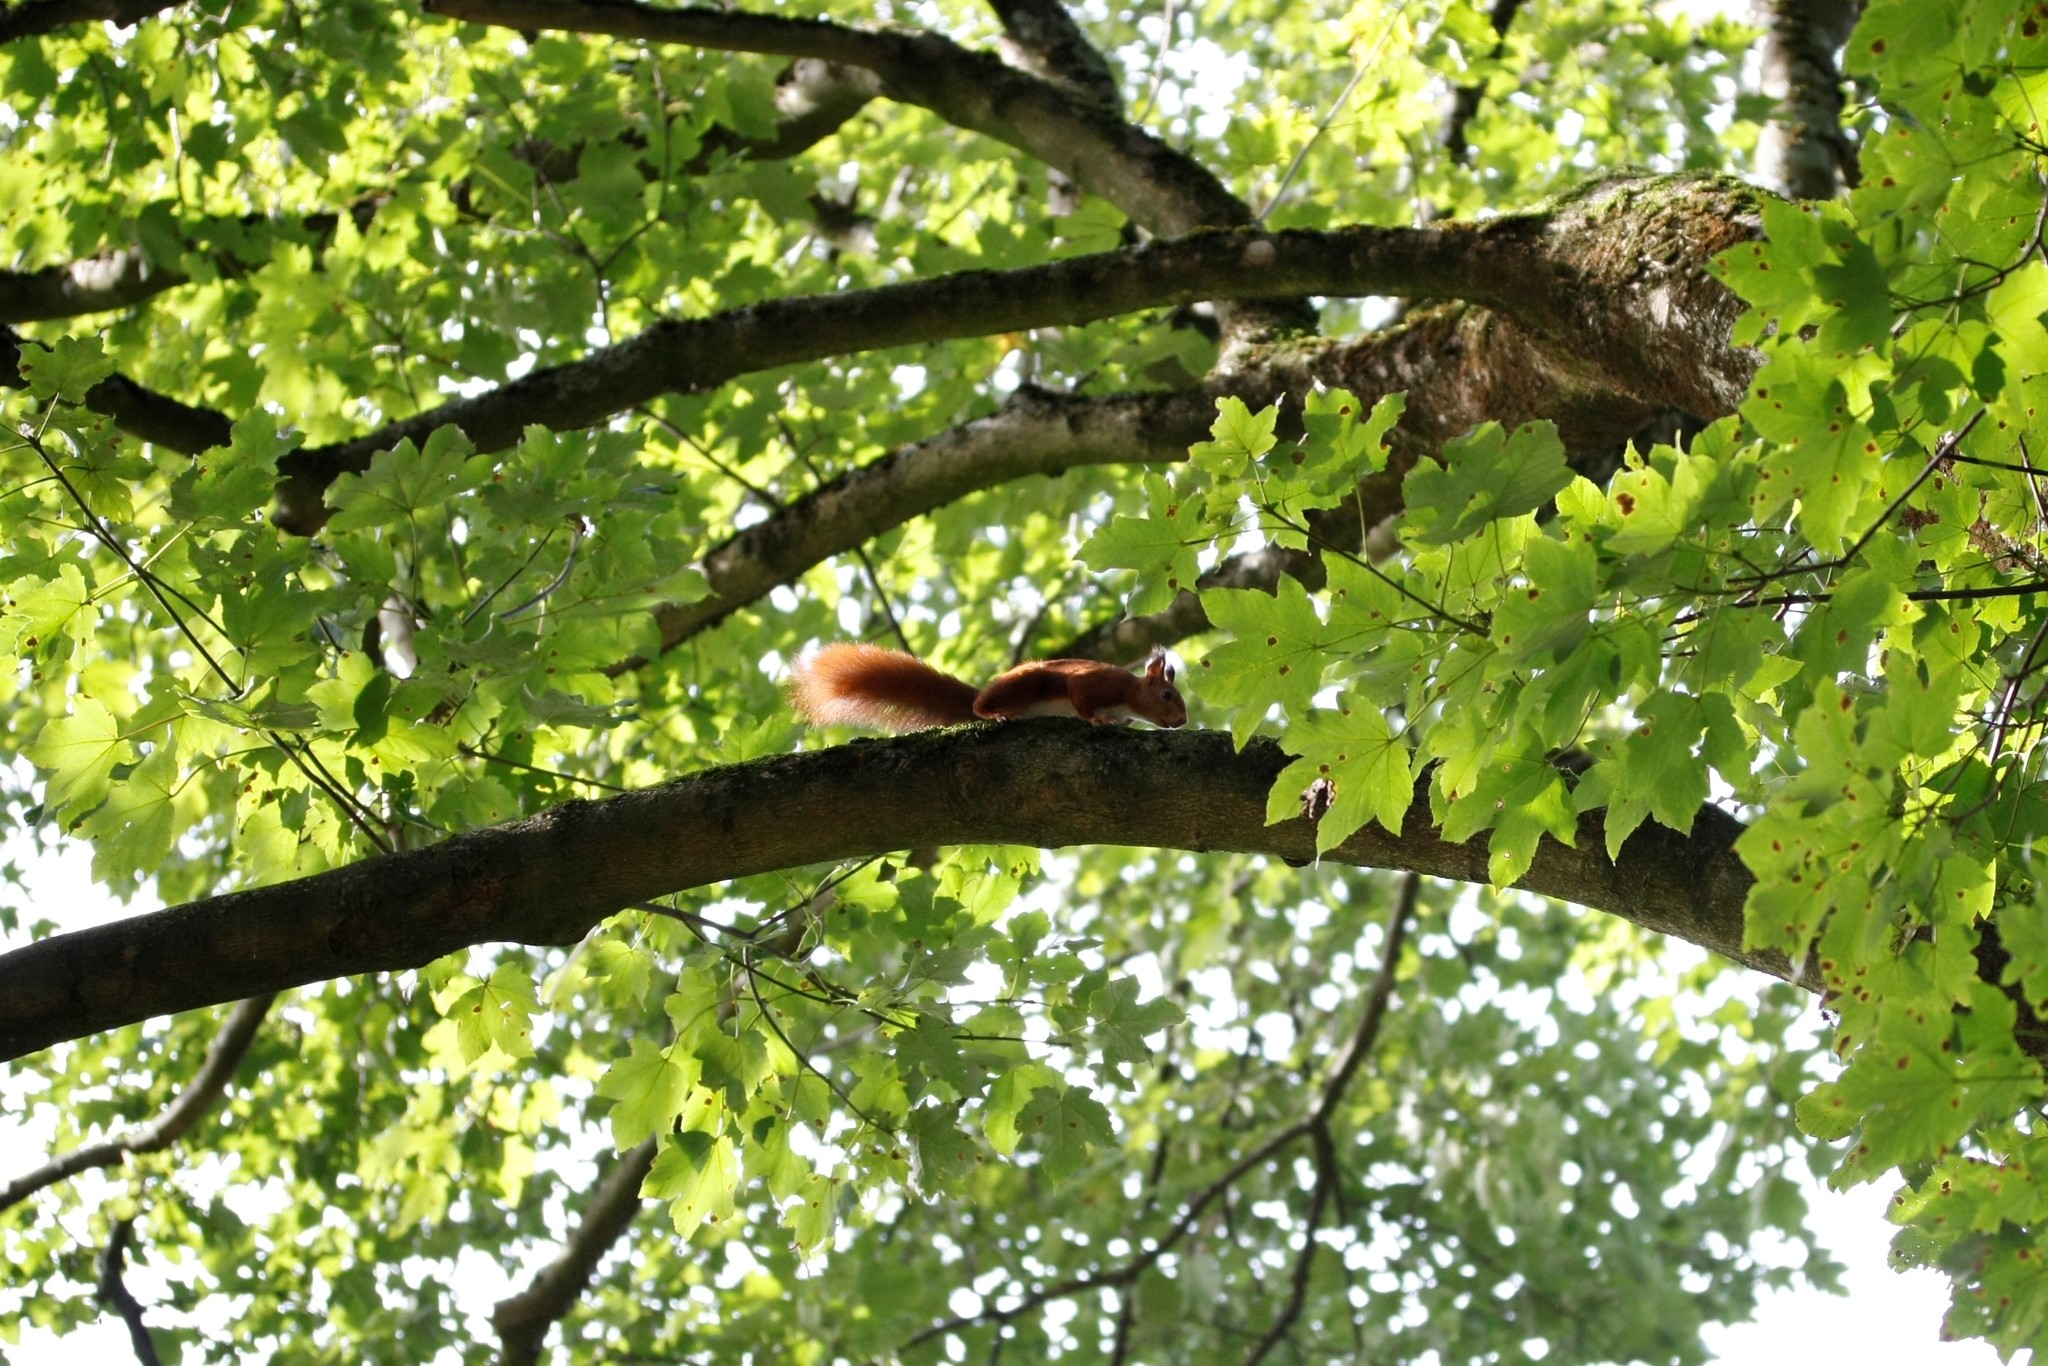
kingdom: Animalia
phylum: Chordata
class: Mammalia
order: Rodentia
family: Sciuridae
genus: Sciurus
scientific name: Sciurus vulgaris
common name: Eurasian red squirrel
